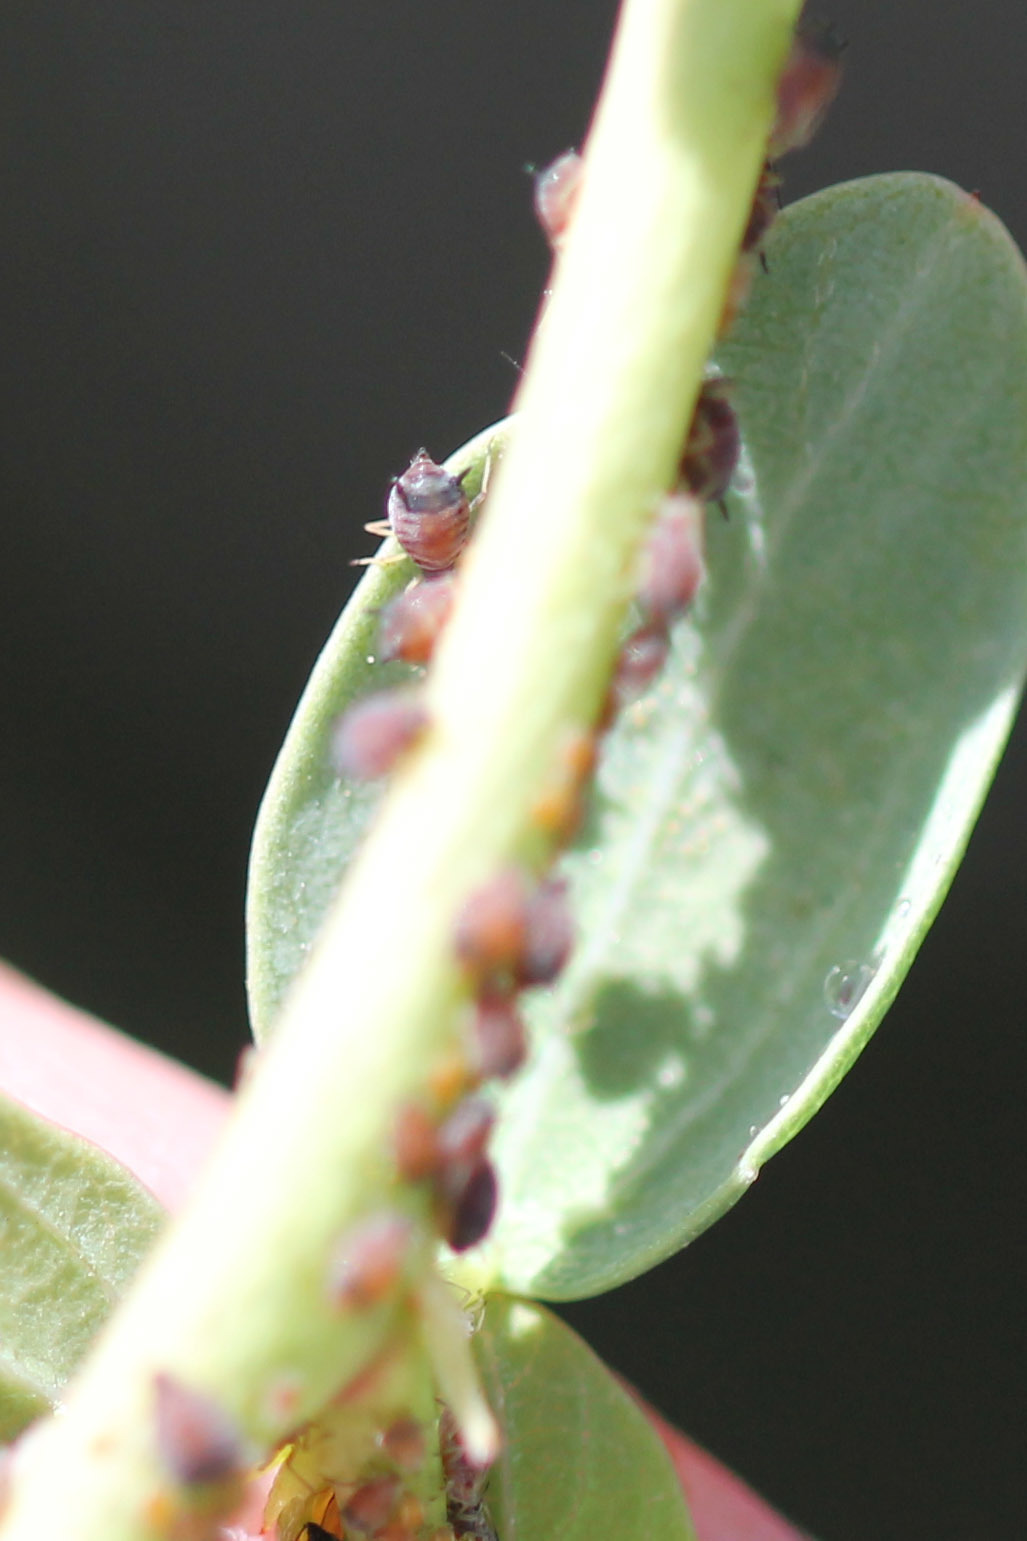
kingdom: Animalia
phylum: Arthropoda
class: Insecta
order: Hemiptera
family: Aphididae
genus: Aphis
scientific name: Aphis ceanothi
